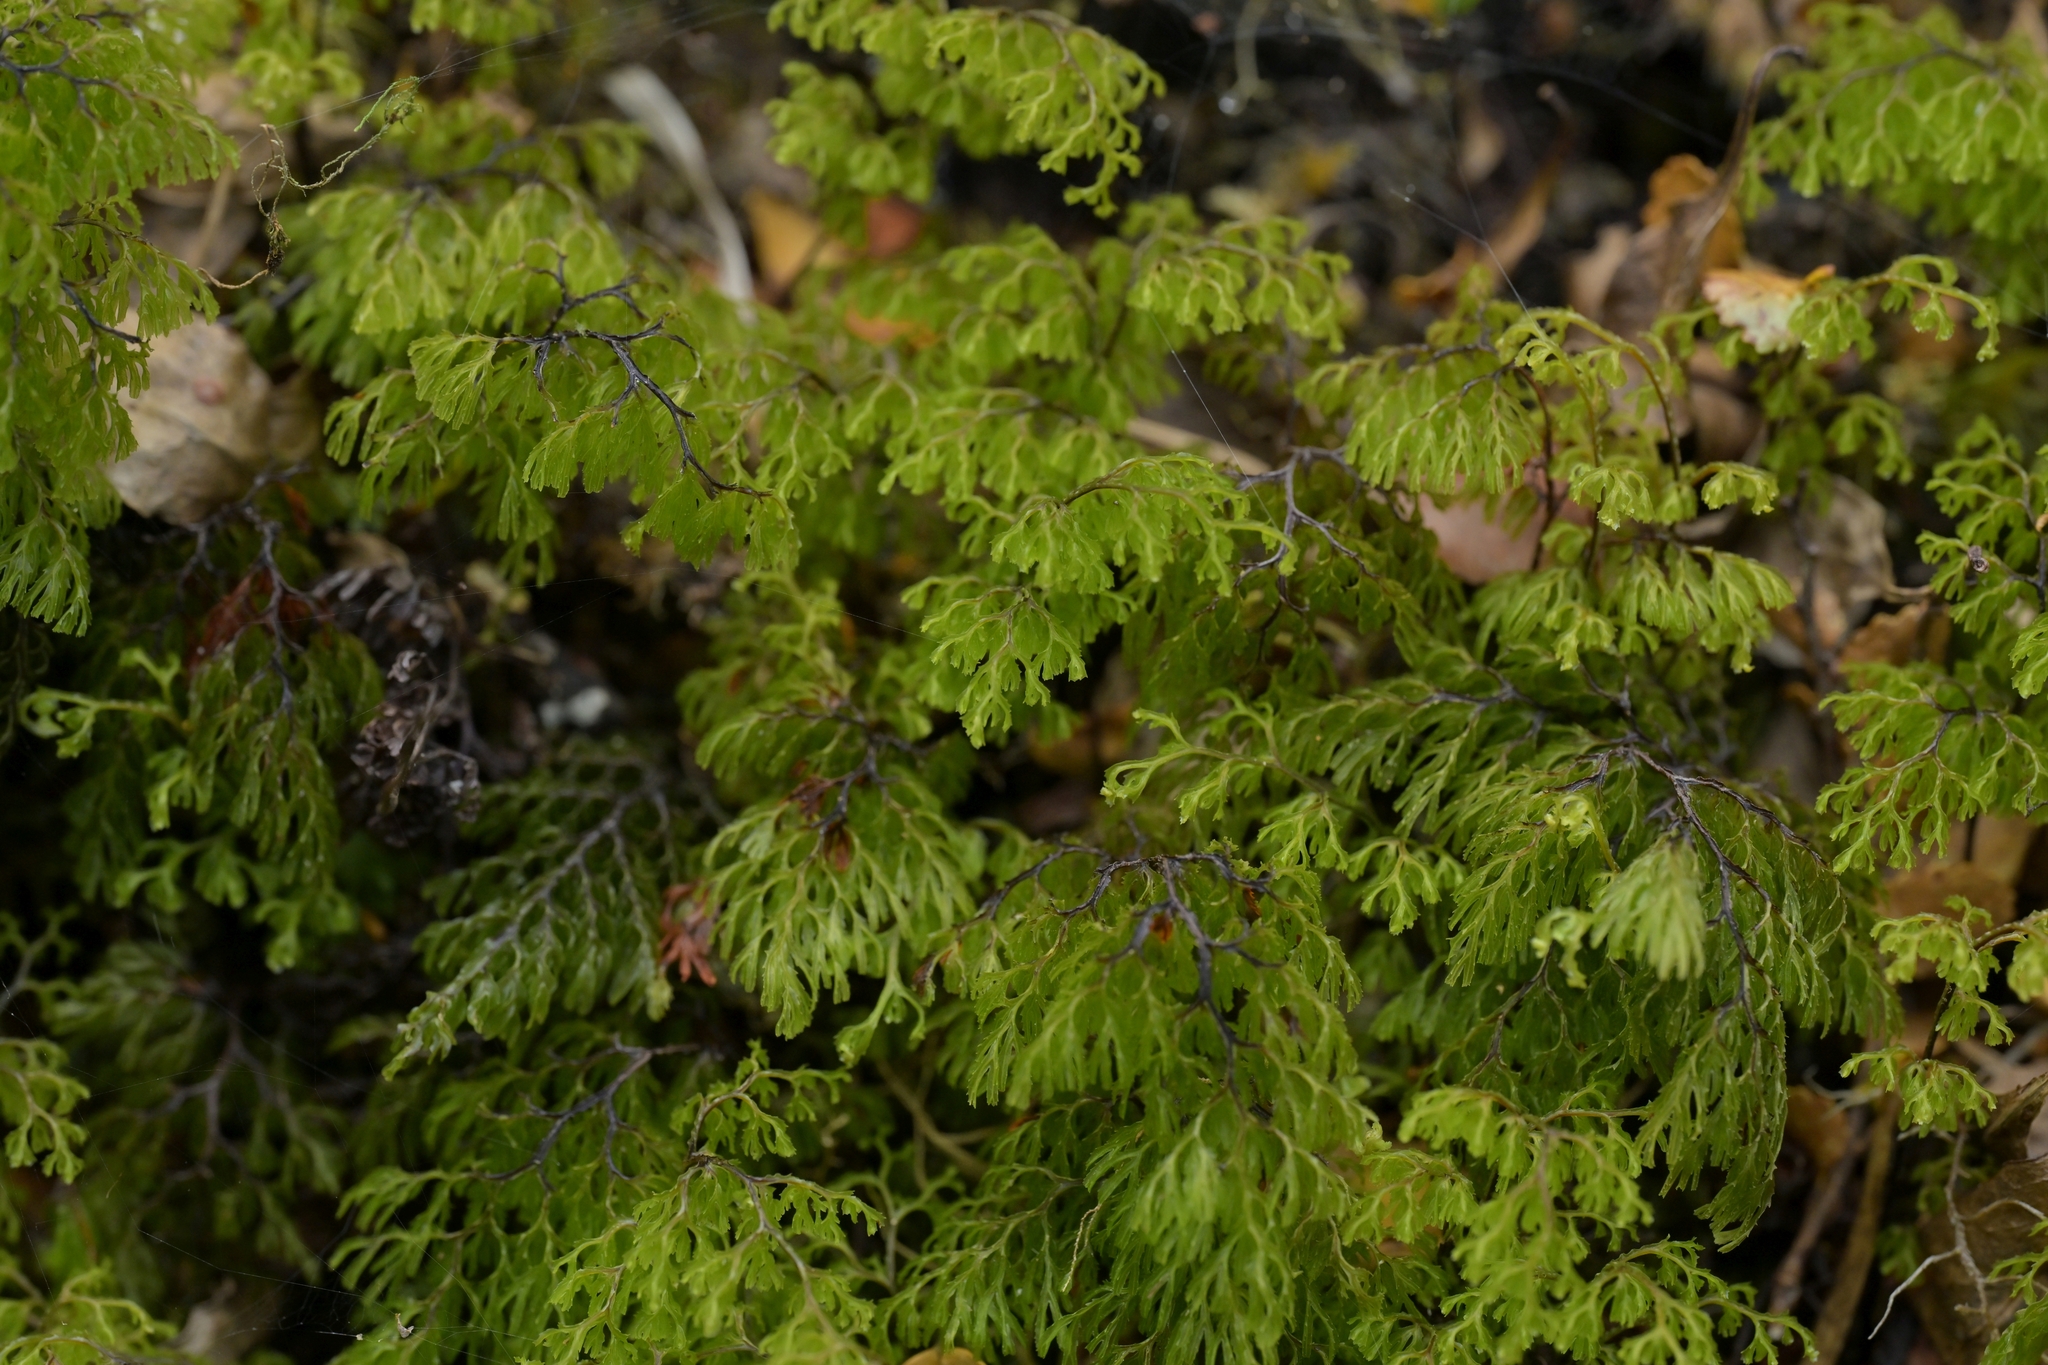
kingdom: Plantae
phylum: Tracheophyta
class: Polypodiopsida
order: Hymenophyllales
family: Hymenophyllaceae
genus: Hymenophyllum
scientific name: Hymenophyllum multifidum
